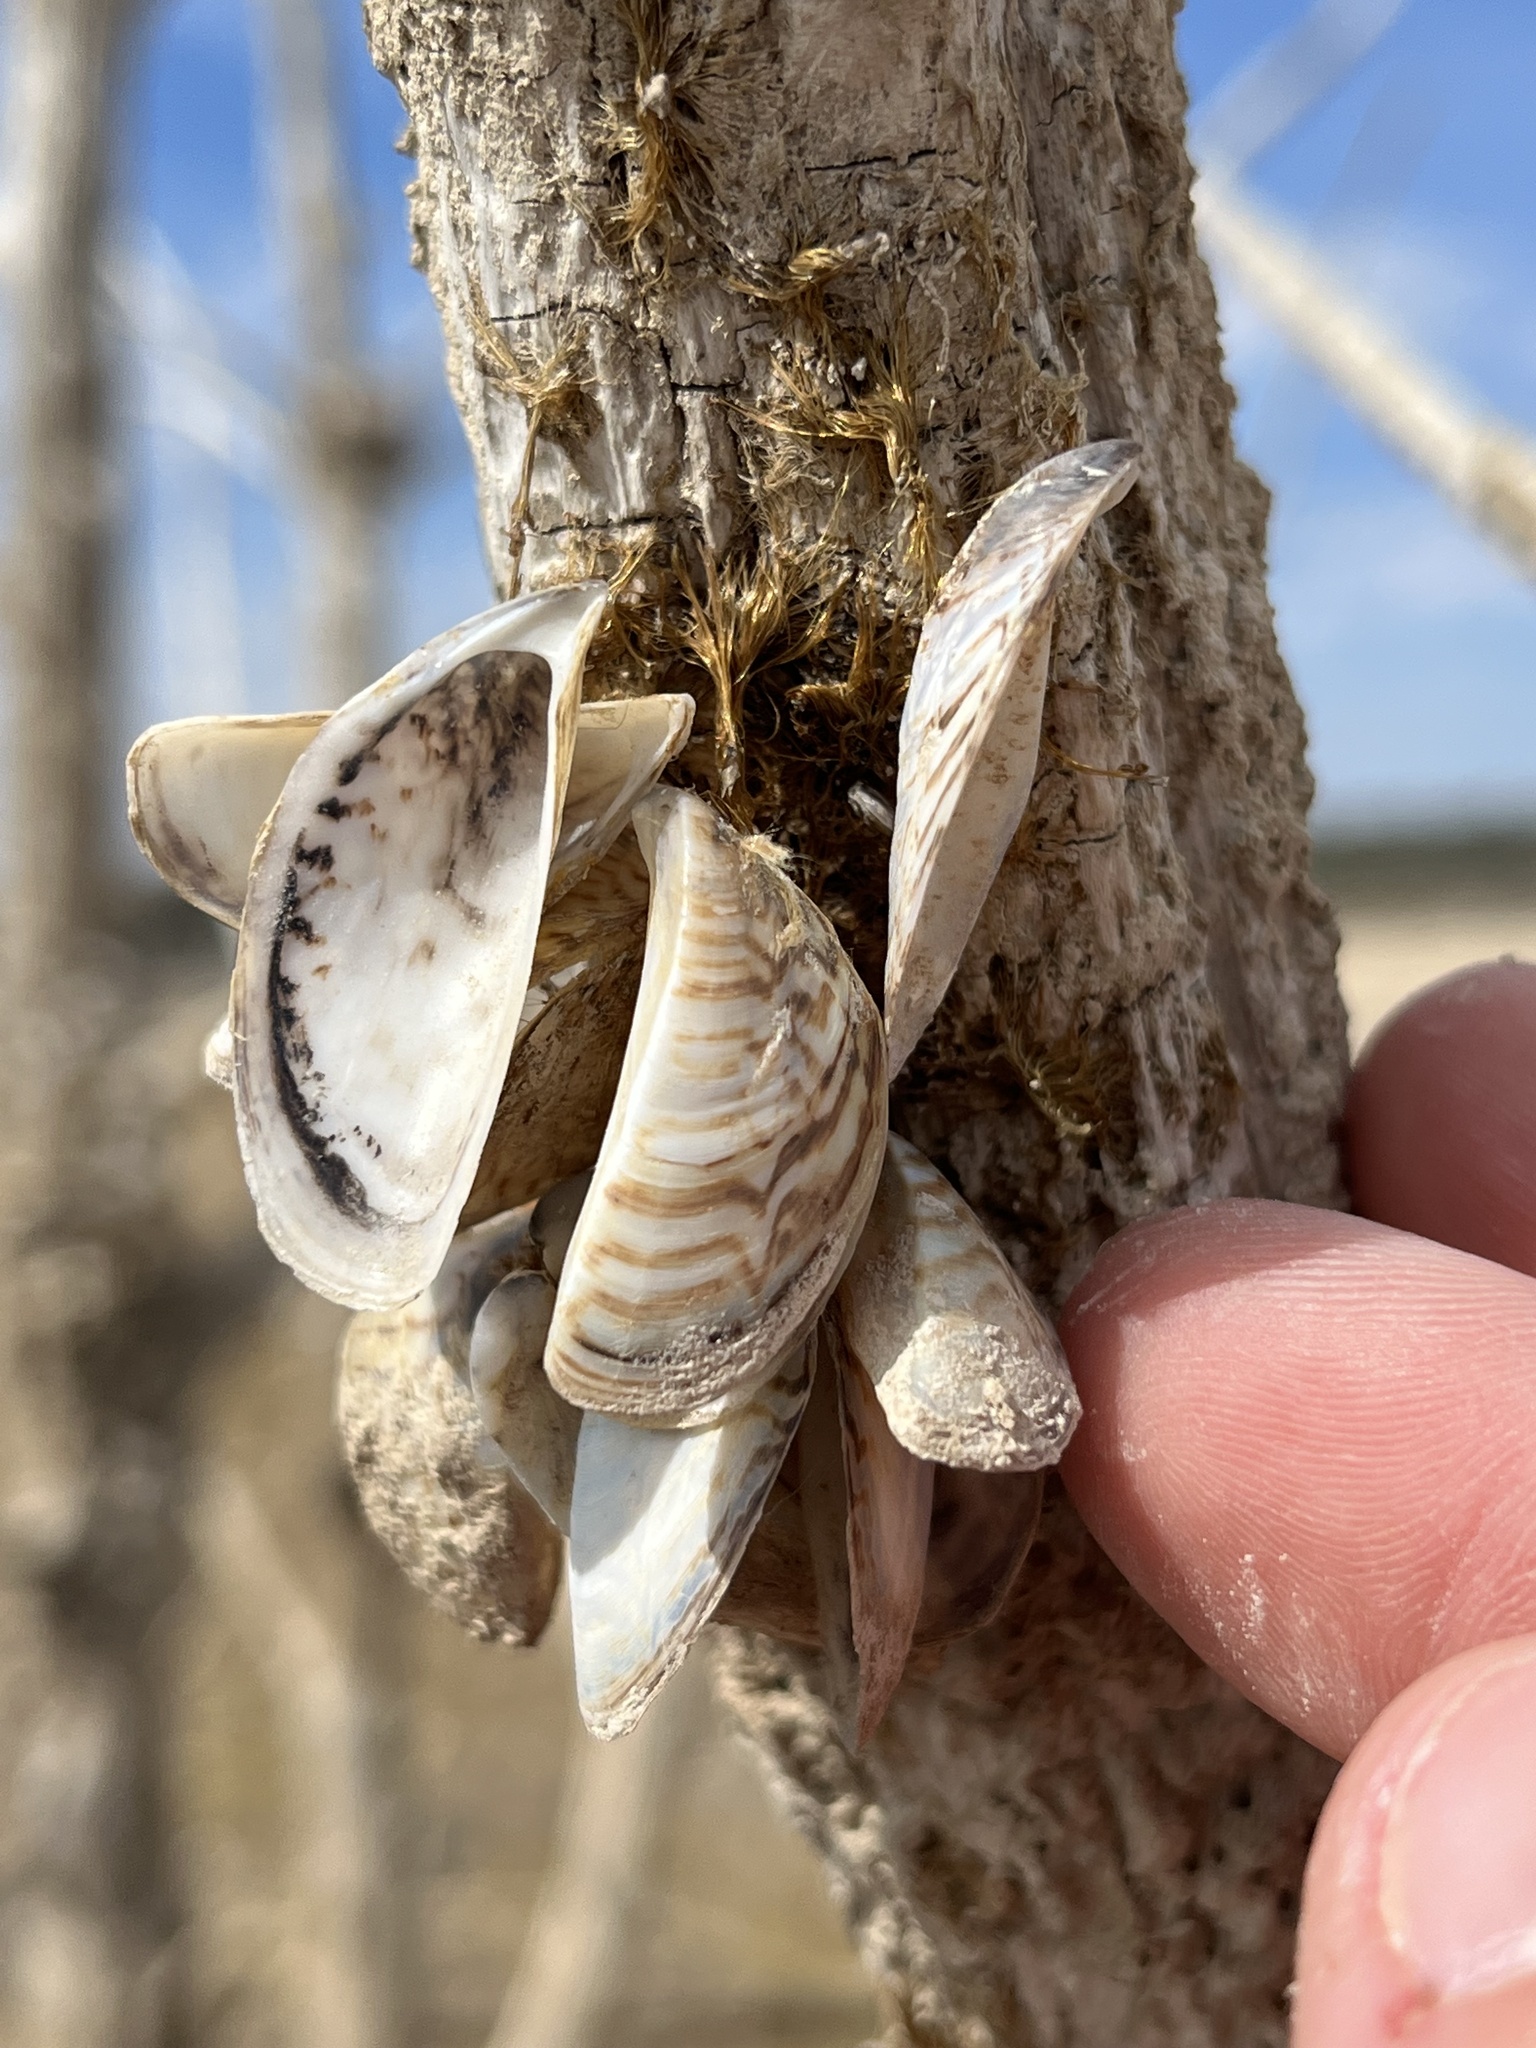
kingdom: Animalia
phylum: Mollusca
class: Bivalvia
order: Myida
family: Dreissenidae
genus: Dreissena
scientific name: Dreissena polymorpha
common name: Zebra mussel
